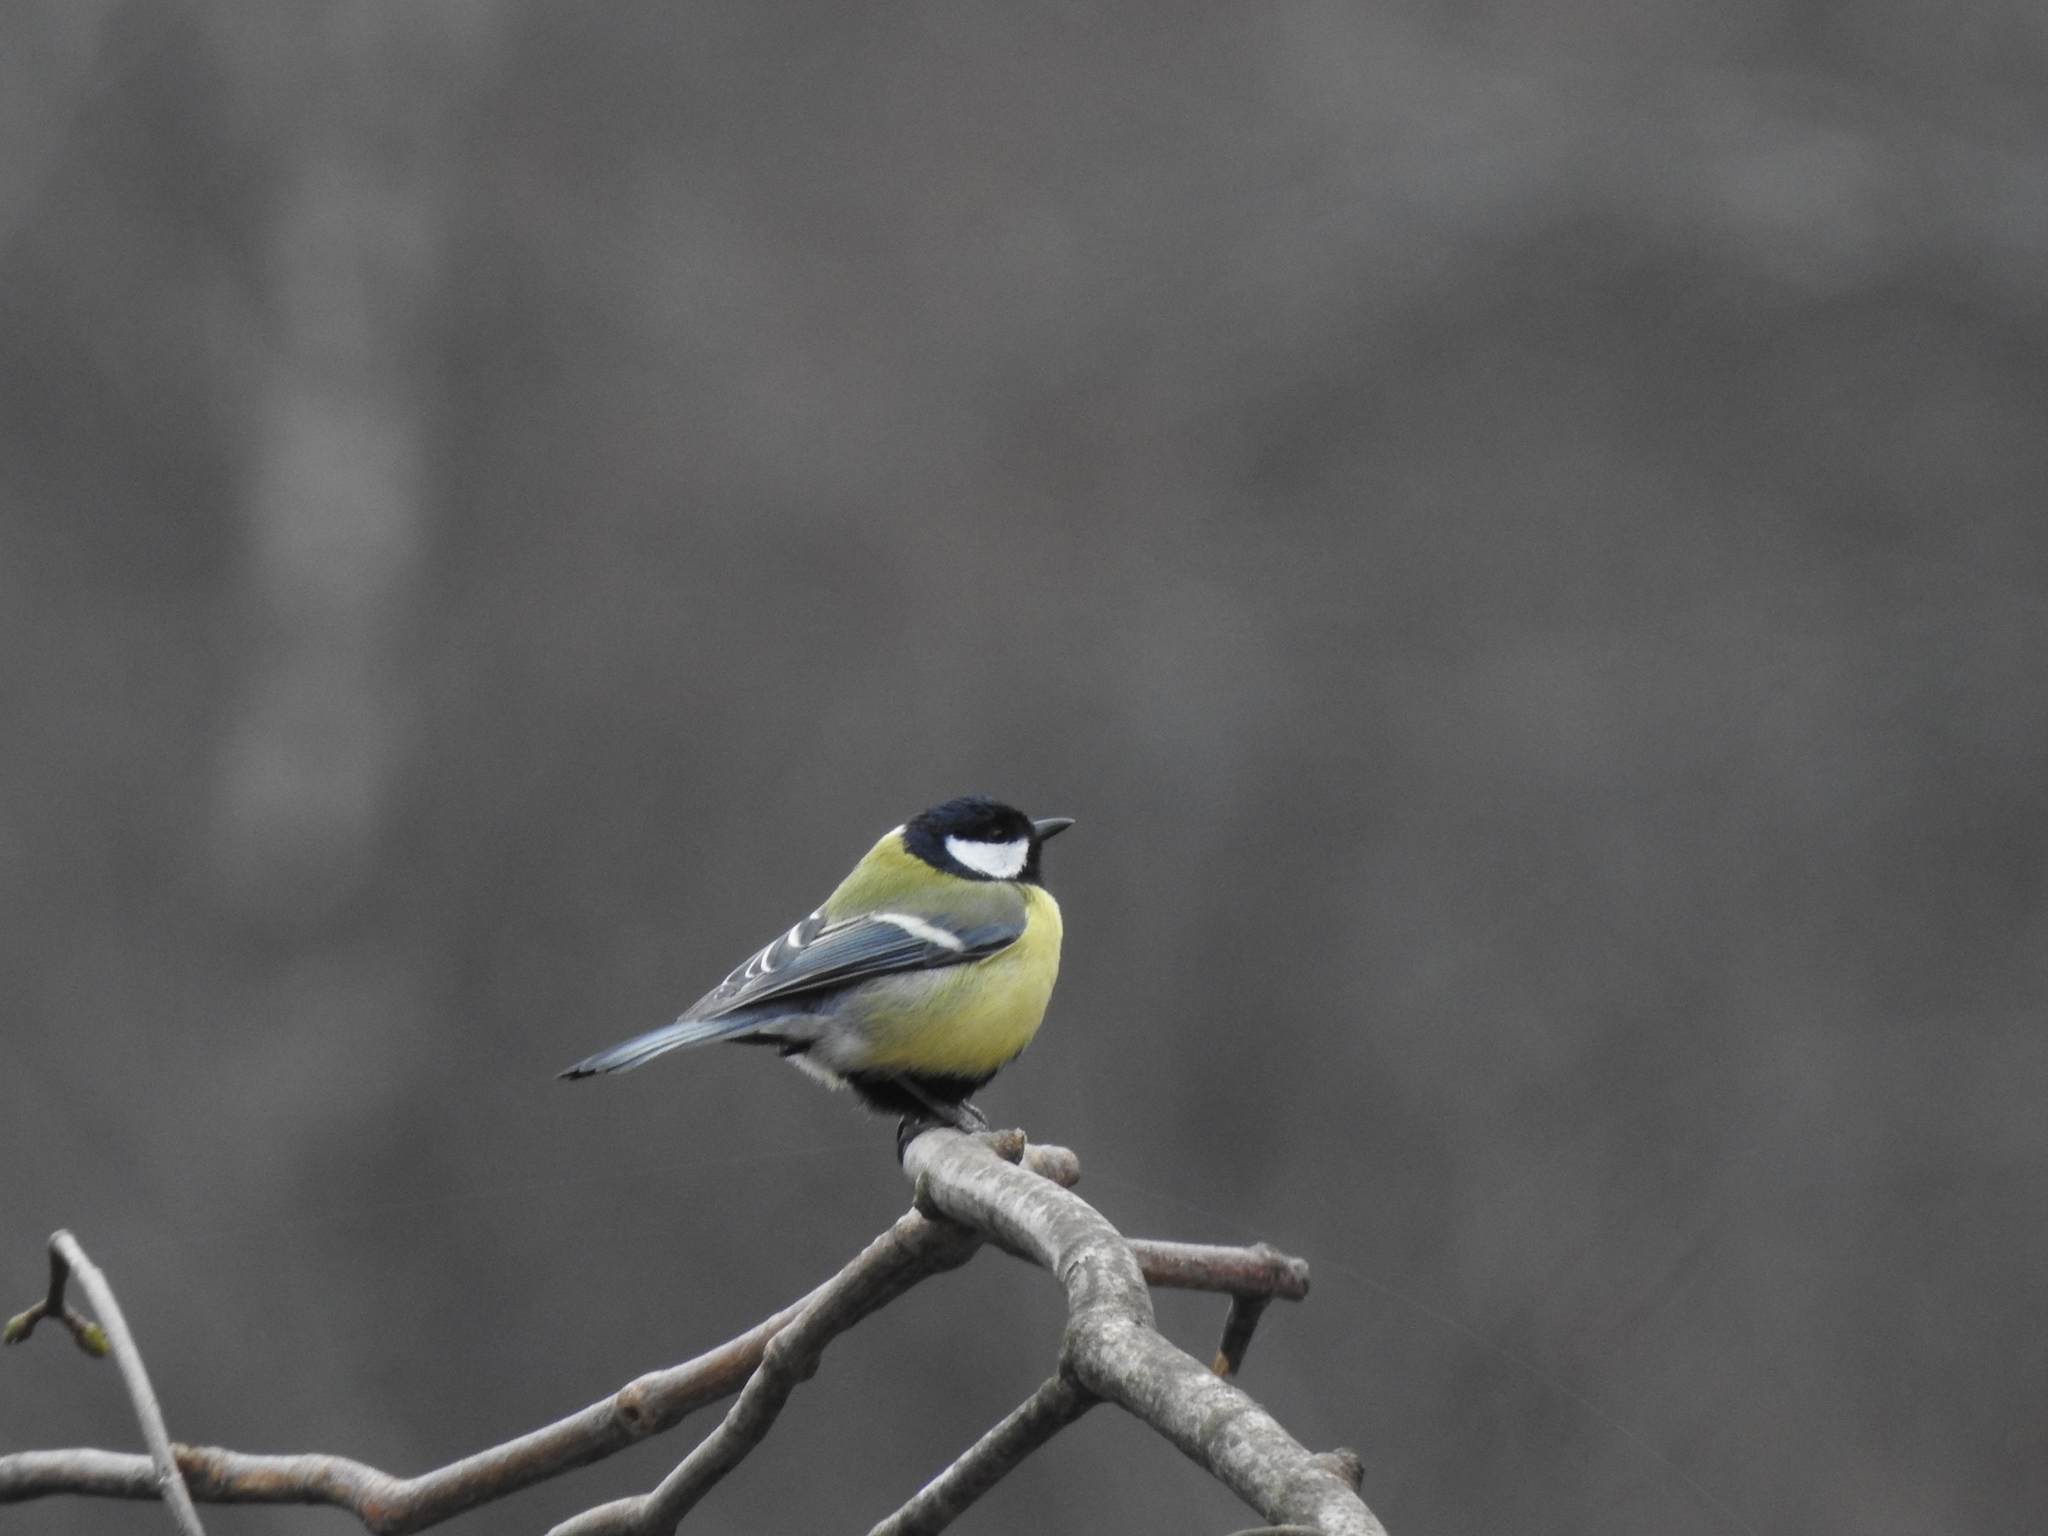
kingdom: Animalia
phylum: Chordata
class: Aves
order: Passeriformes
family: Paridae
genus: Parus
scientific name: Parus major
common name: Great tit
